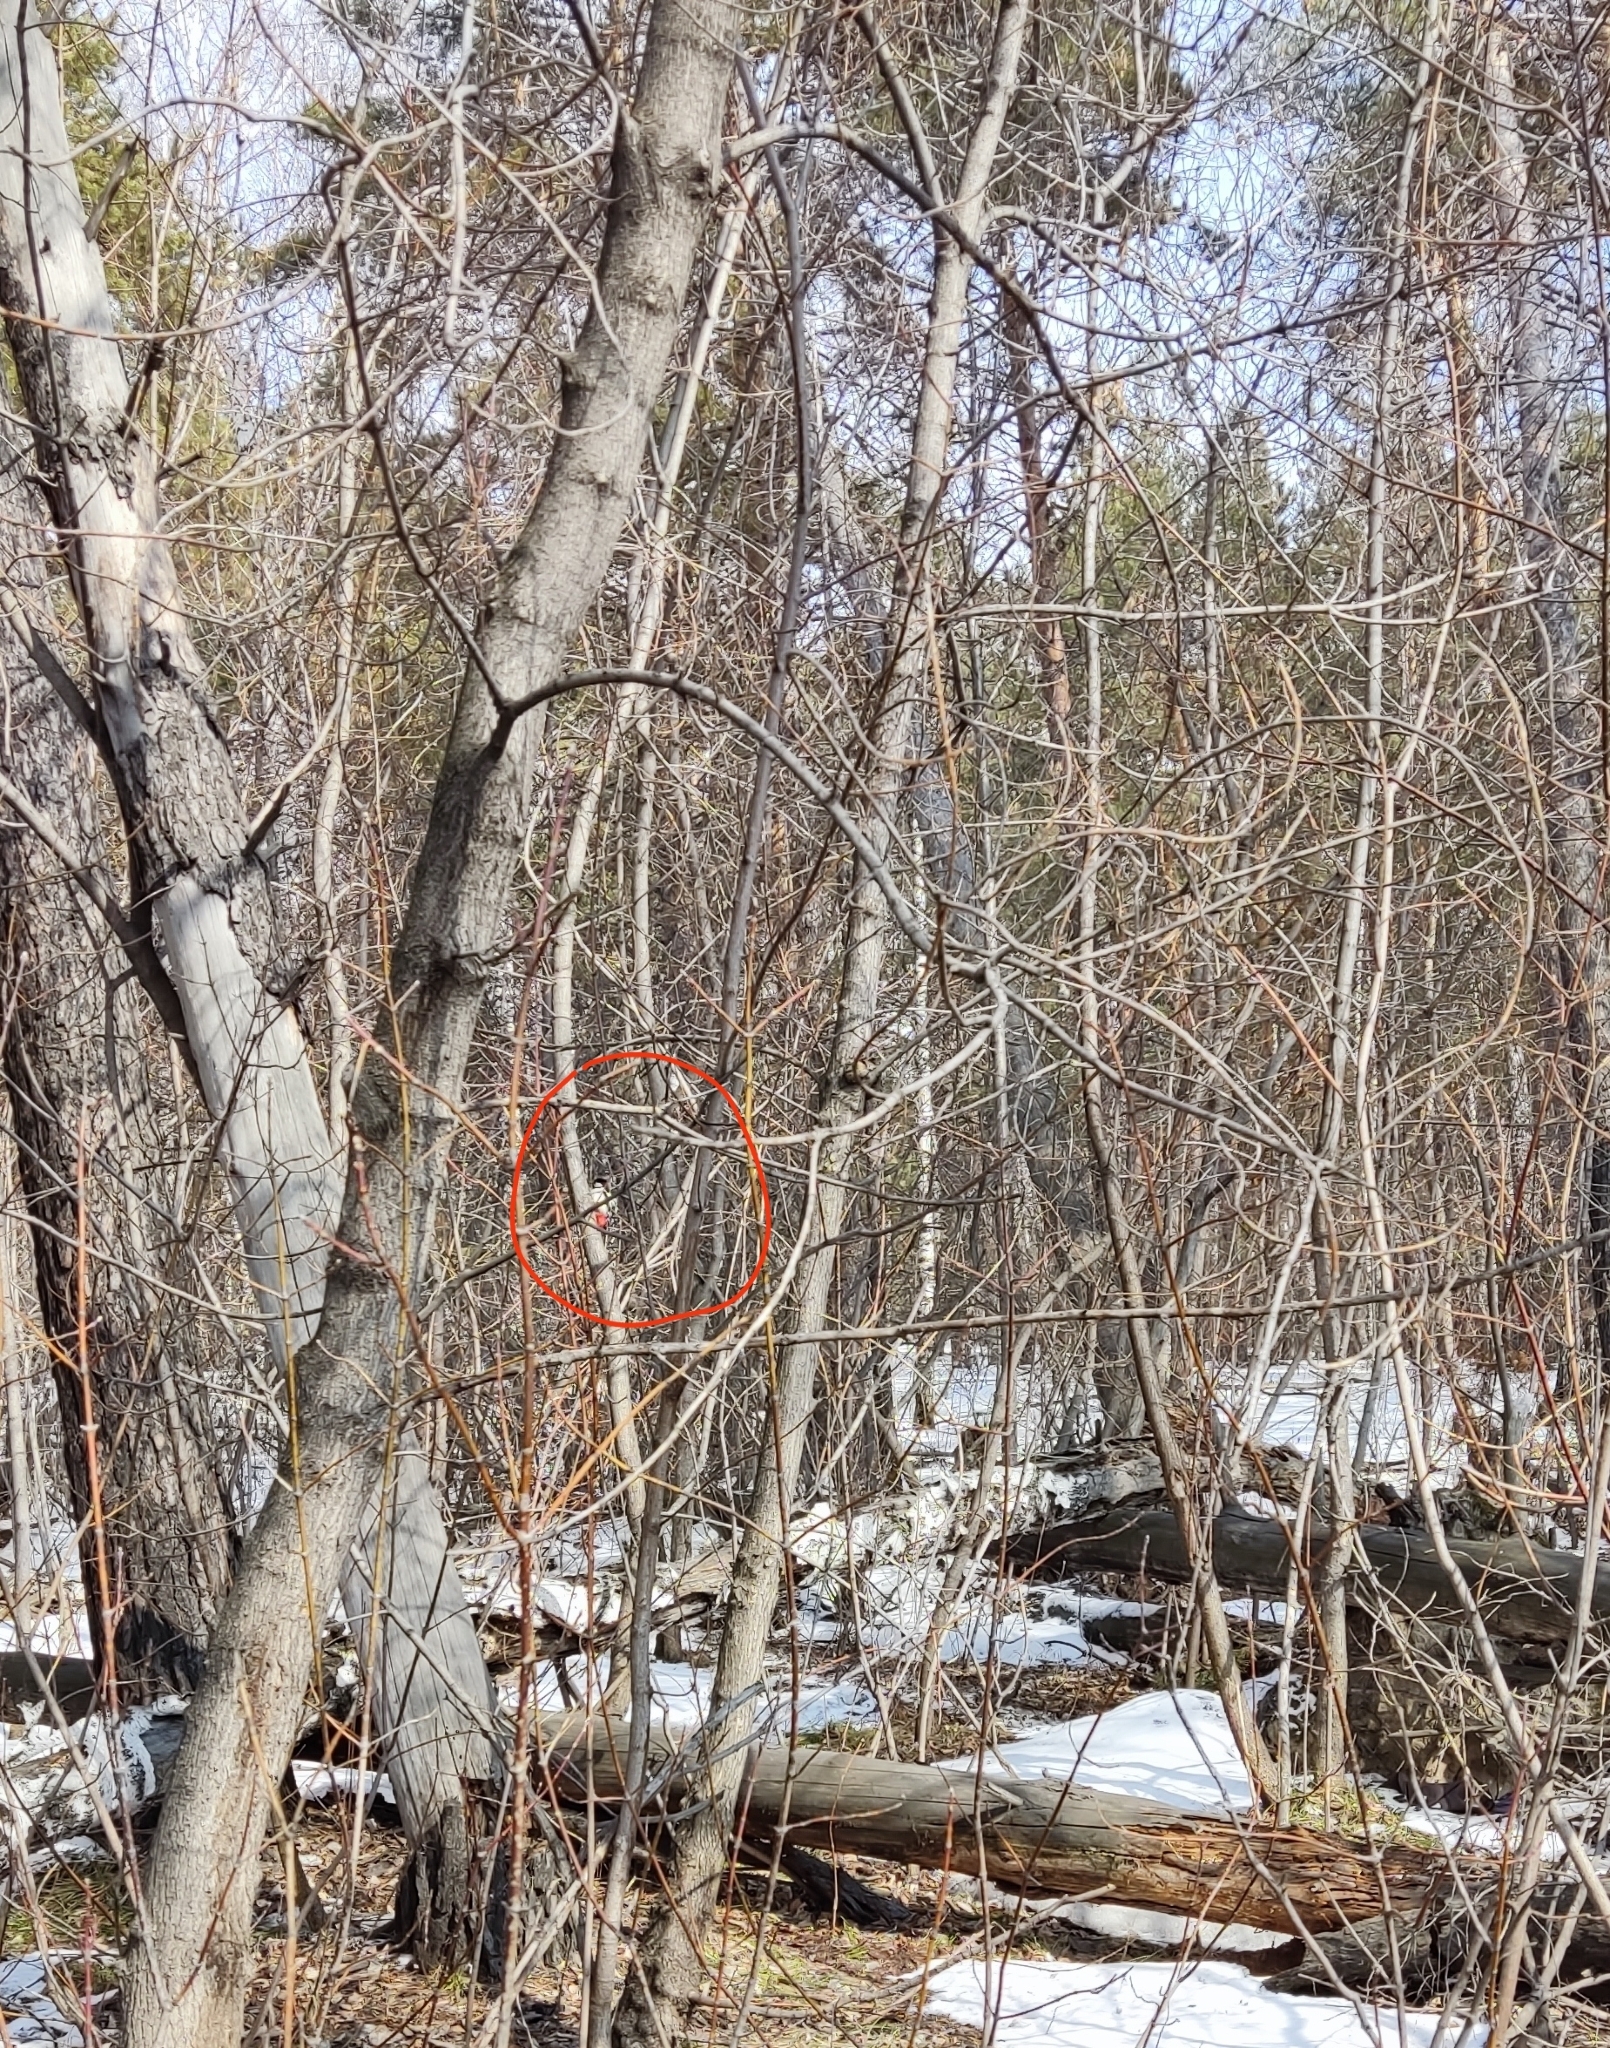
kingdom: Animalia
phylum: Chordata
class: Aves
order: Piciformes
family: Picidae
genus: Dendrocopos
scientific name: Dendrocopos major
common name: Great spotted woodpecker
